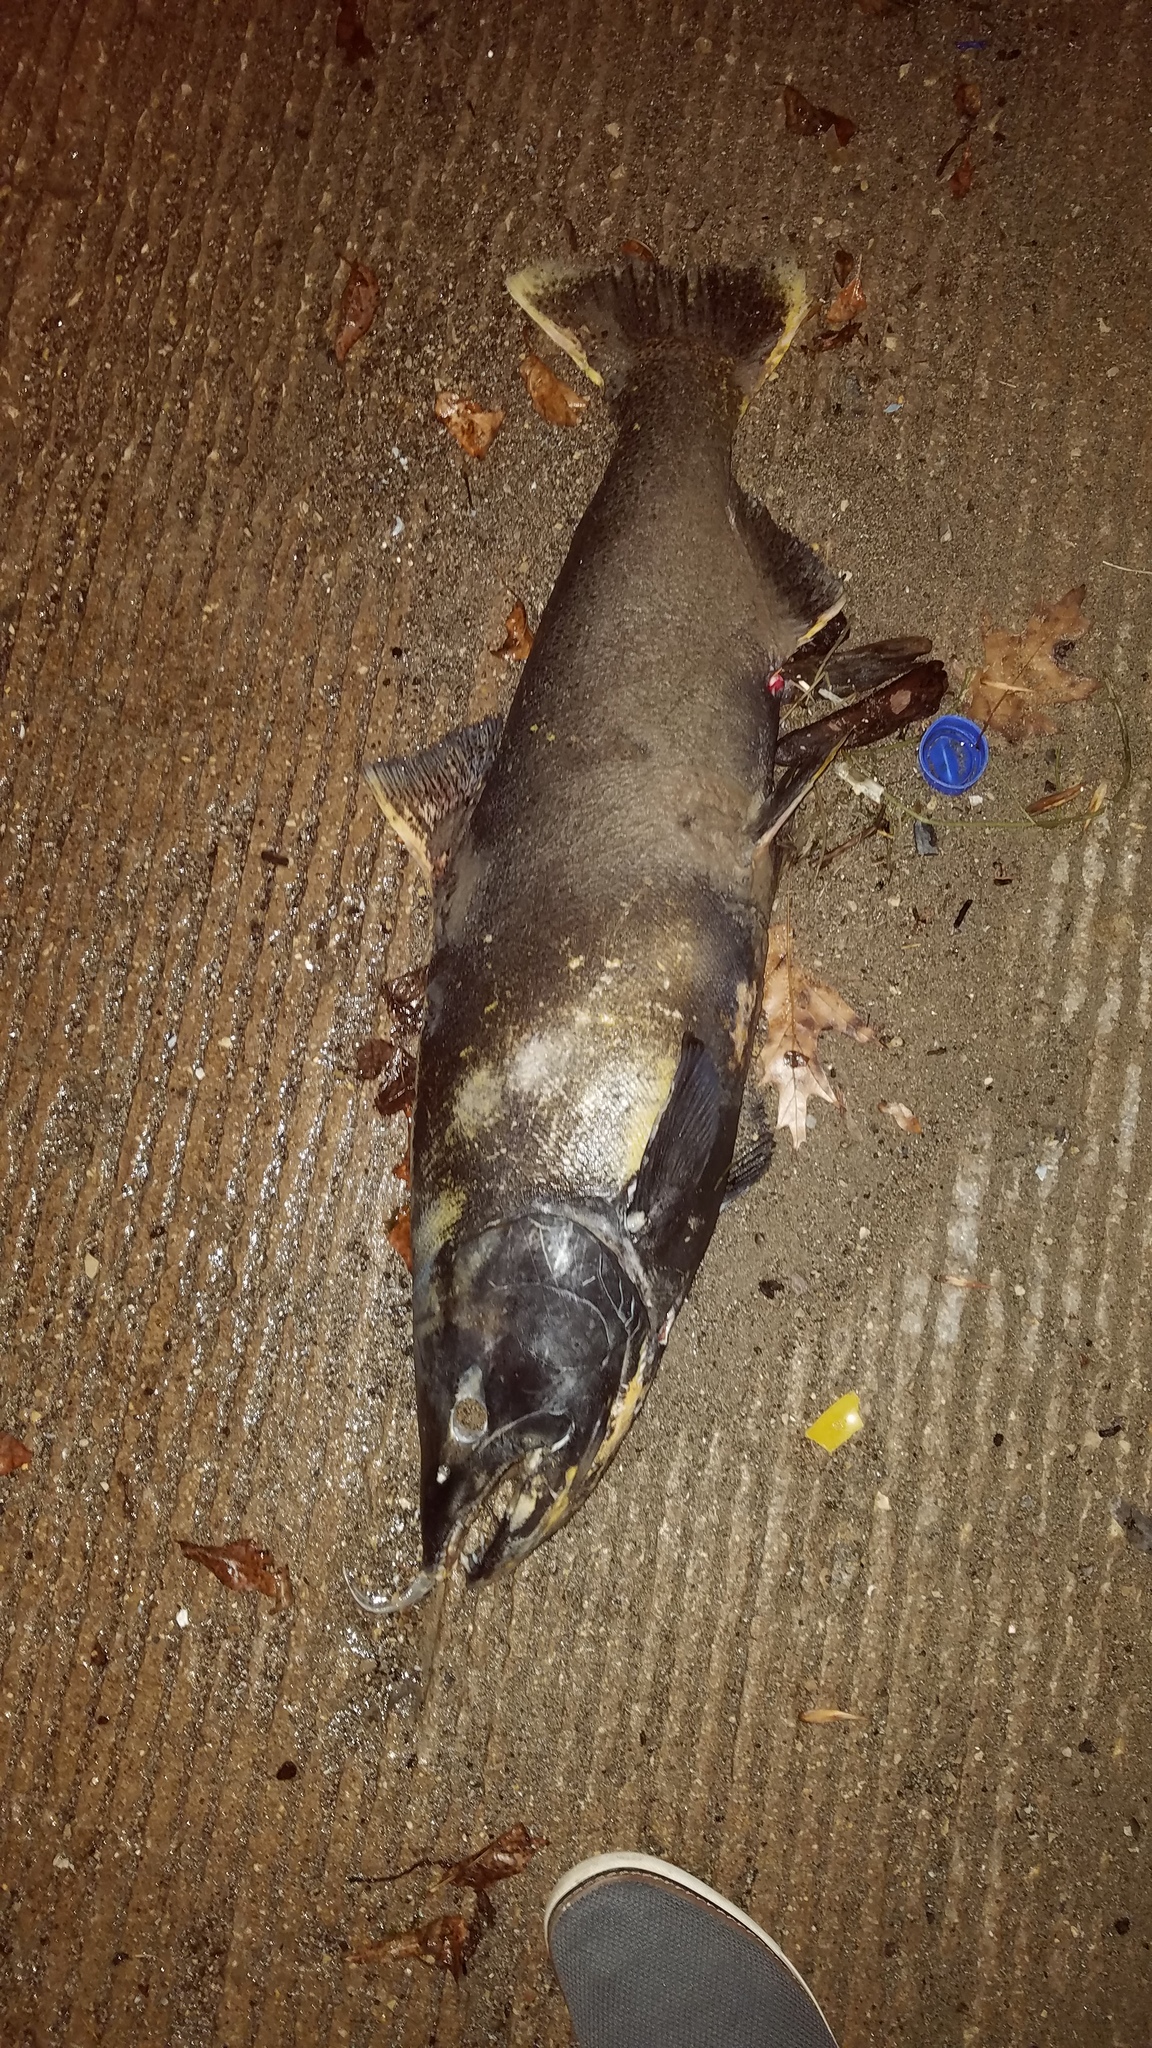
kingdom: Animalia
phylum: Chordata
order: Salmoniformes
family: Salmonidae
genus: Oncorhynchus
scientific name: Oncorhynchus tshawytscha
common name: Chinook salmon
